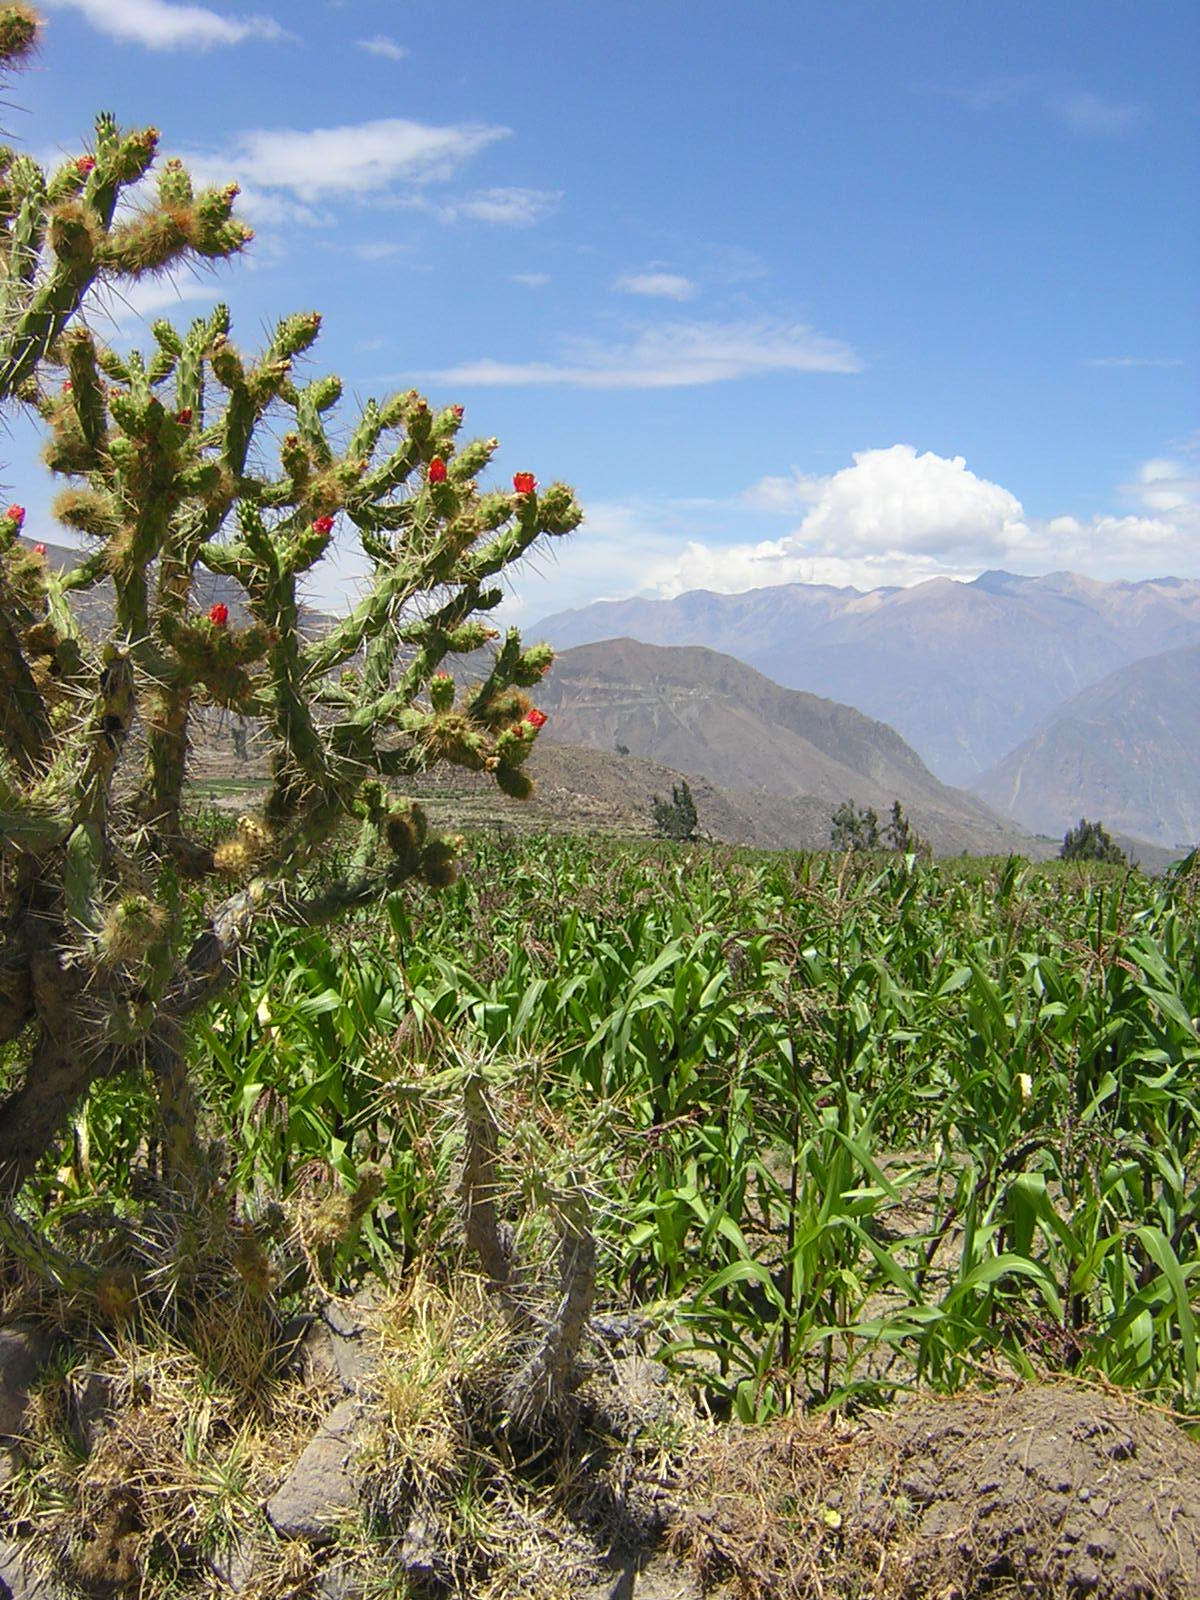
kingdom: Plantae
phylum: Tracheophyta
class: Magnoliopsida
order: Caryophyllales
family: Cactaceae
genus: Austrocylindropuntia
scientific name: Austrocylindropuntia subulata
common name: Eve's needle cactus
